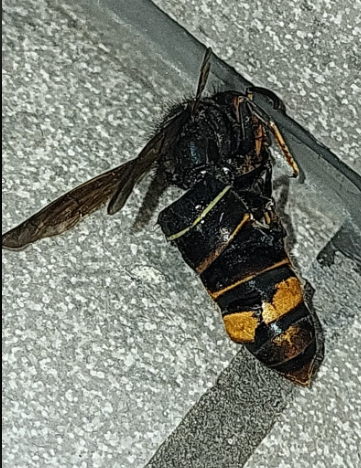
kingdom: Animalia
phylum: Arthropoda
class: Insecta
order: Hymenoptera
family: Vespidae
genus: Vespa
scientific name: Vespa velutina
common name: Asian hornet
